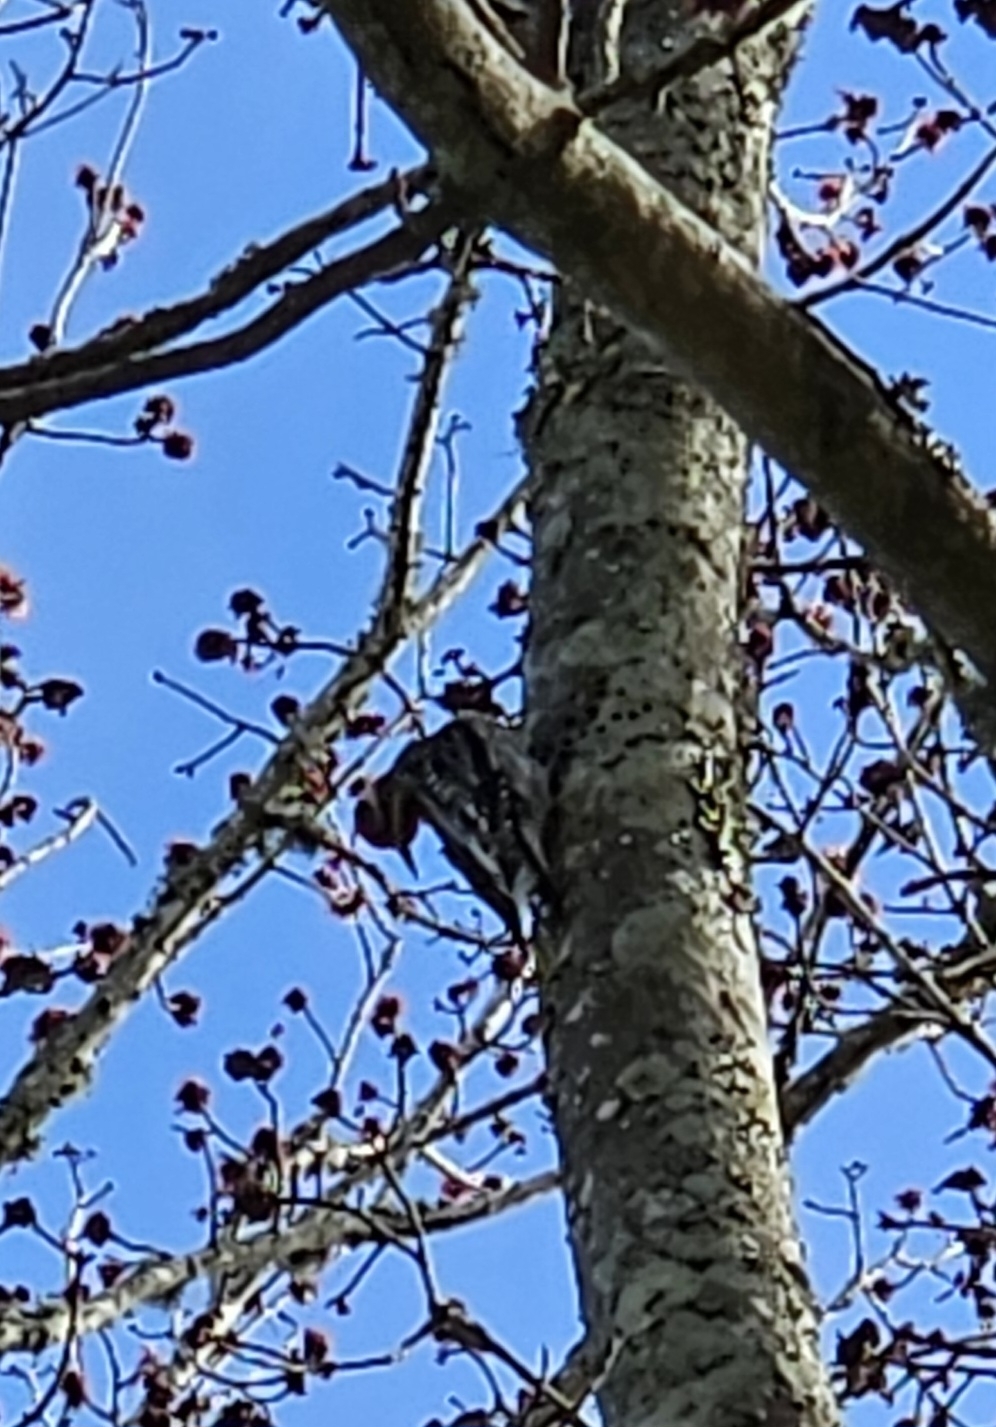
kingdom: Animalia
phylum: Chordata
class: Aves
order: Piciformes
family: Picidae
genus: Sphyrapicus
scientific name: Sphyrapicus varius
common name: Yellow-bellied sapsucker
